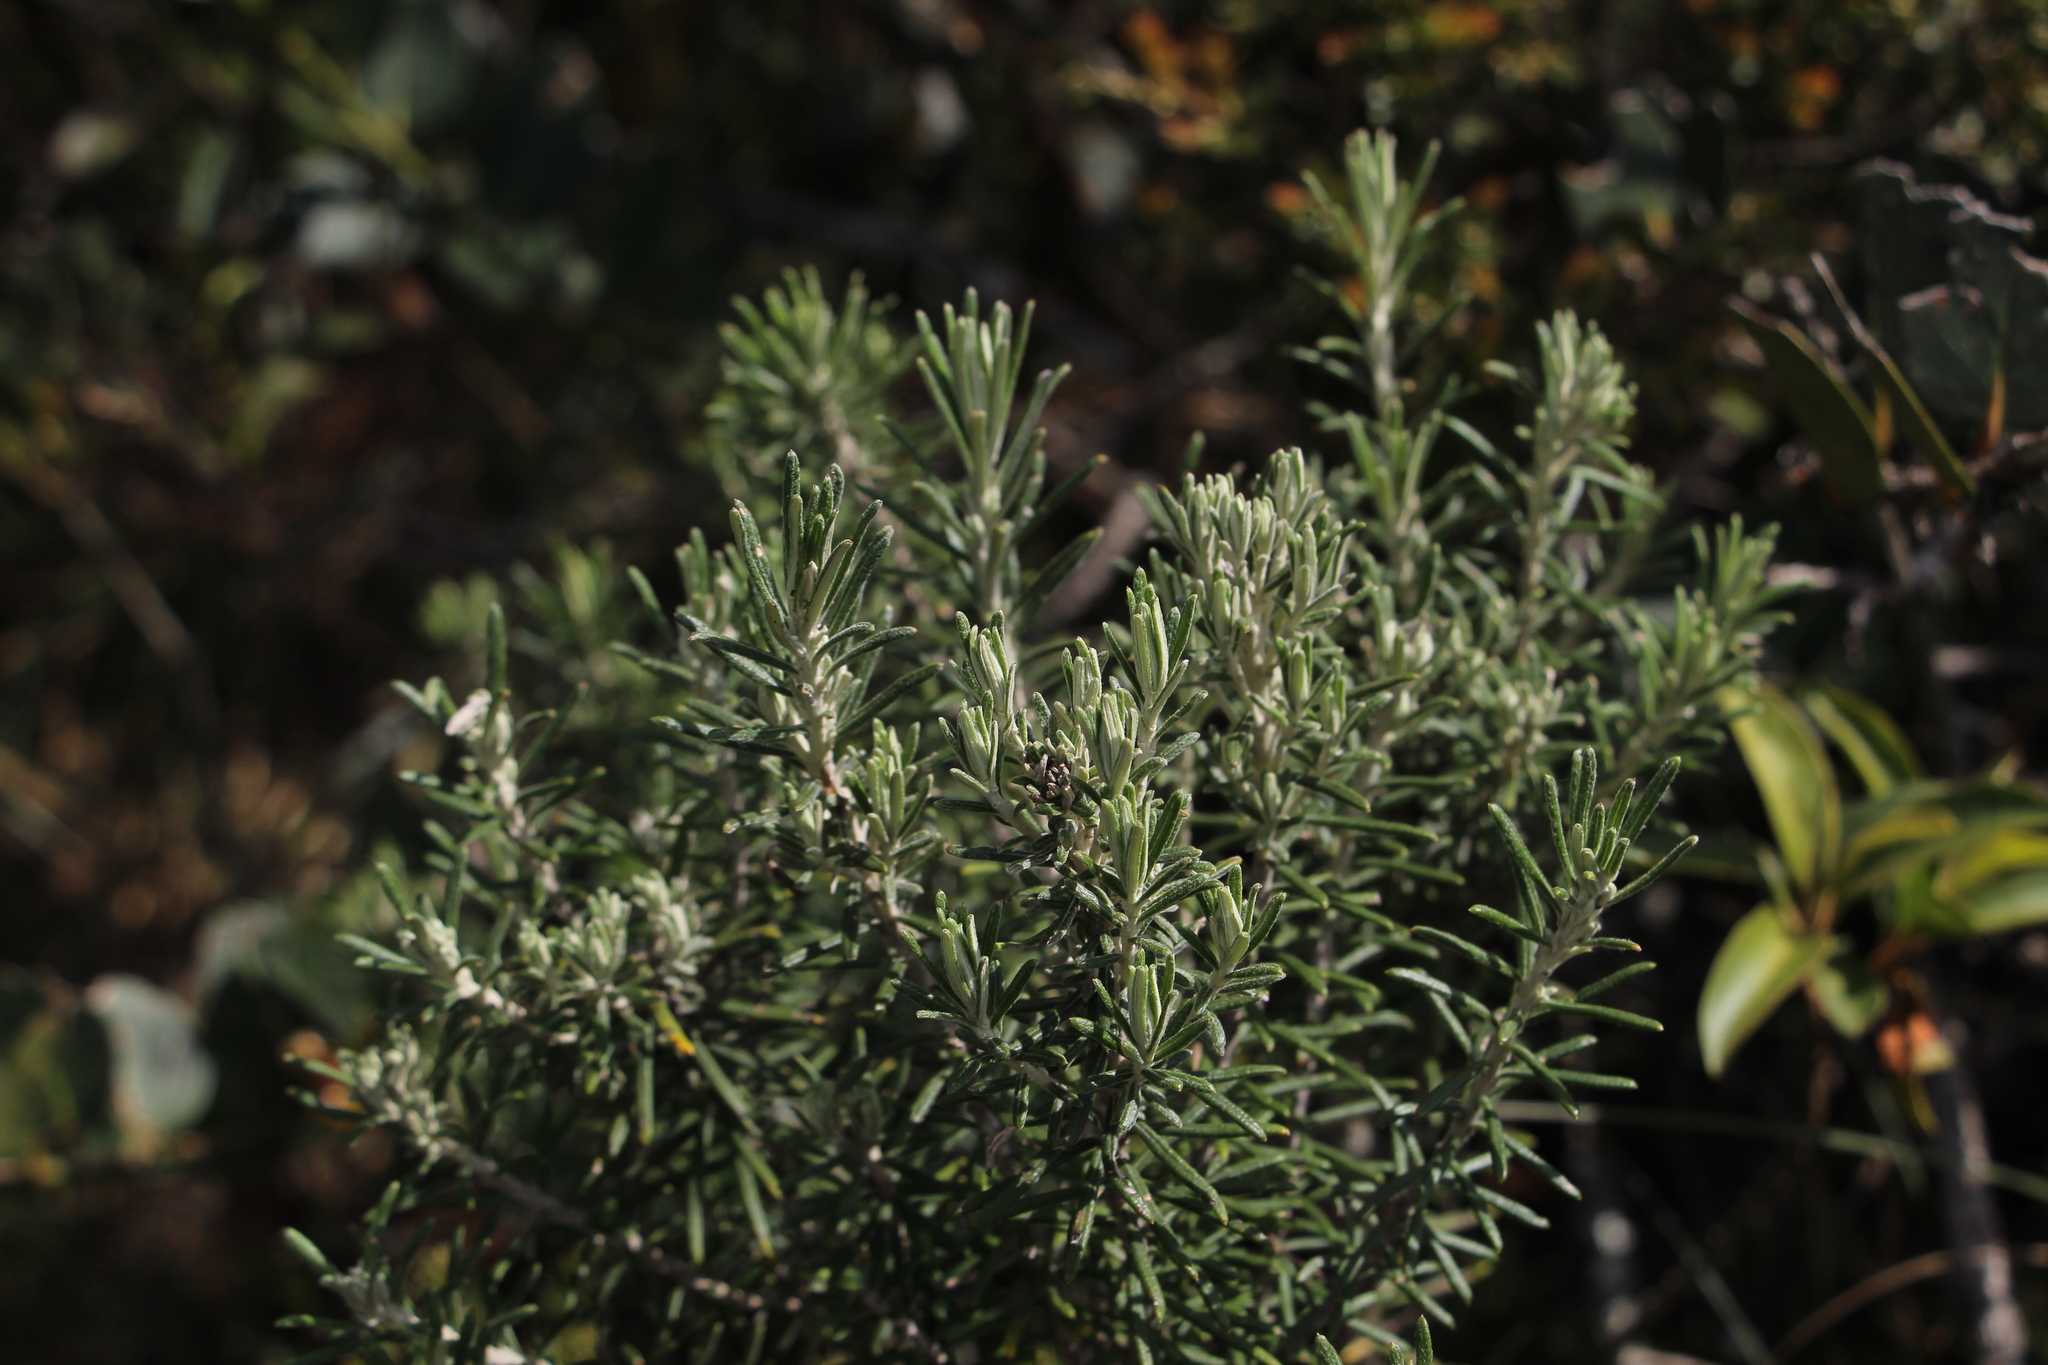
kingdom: Plantae
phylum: Tracheophyta
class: Magnoliopsida
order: Asterales
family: Asteraceae
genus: Linochilus
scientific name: Linochilus rosmarinifolius
